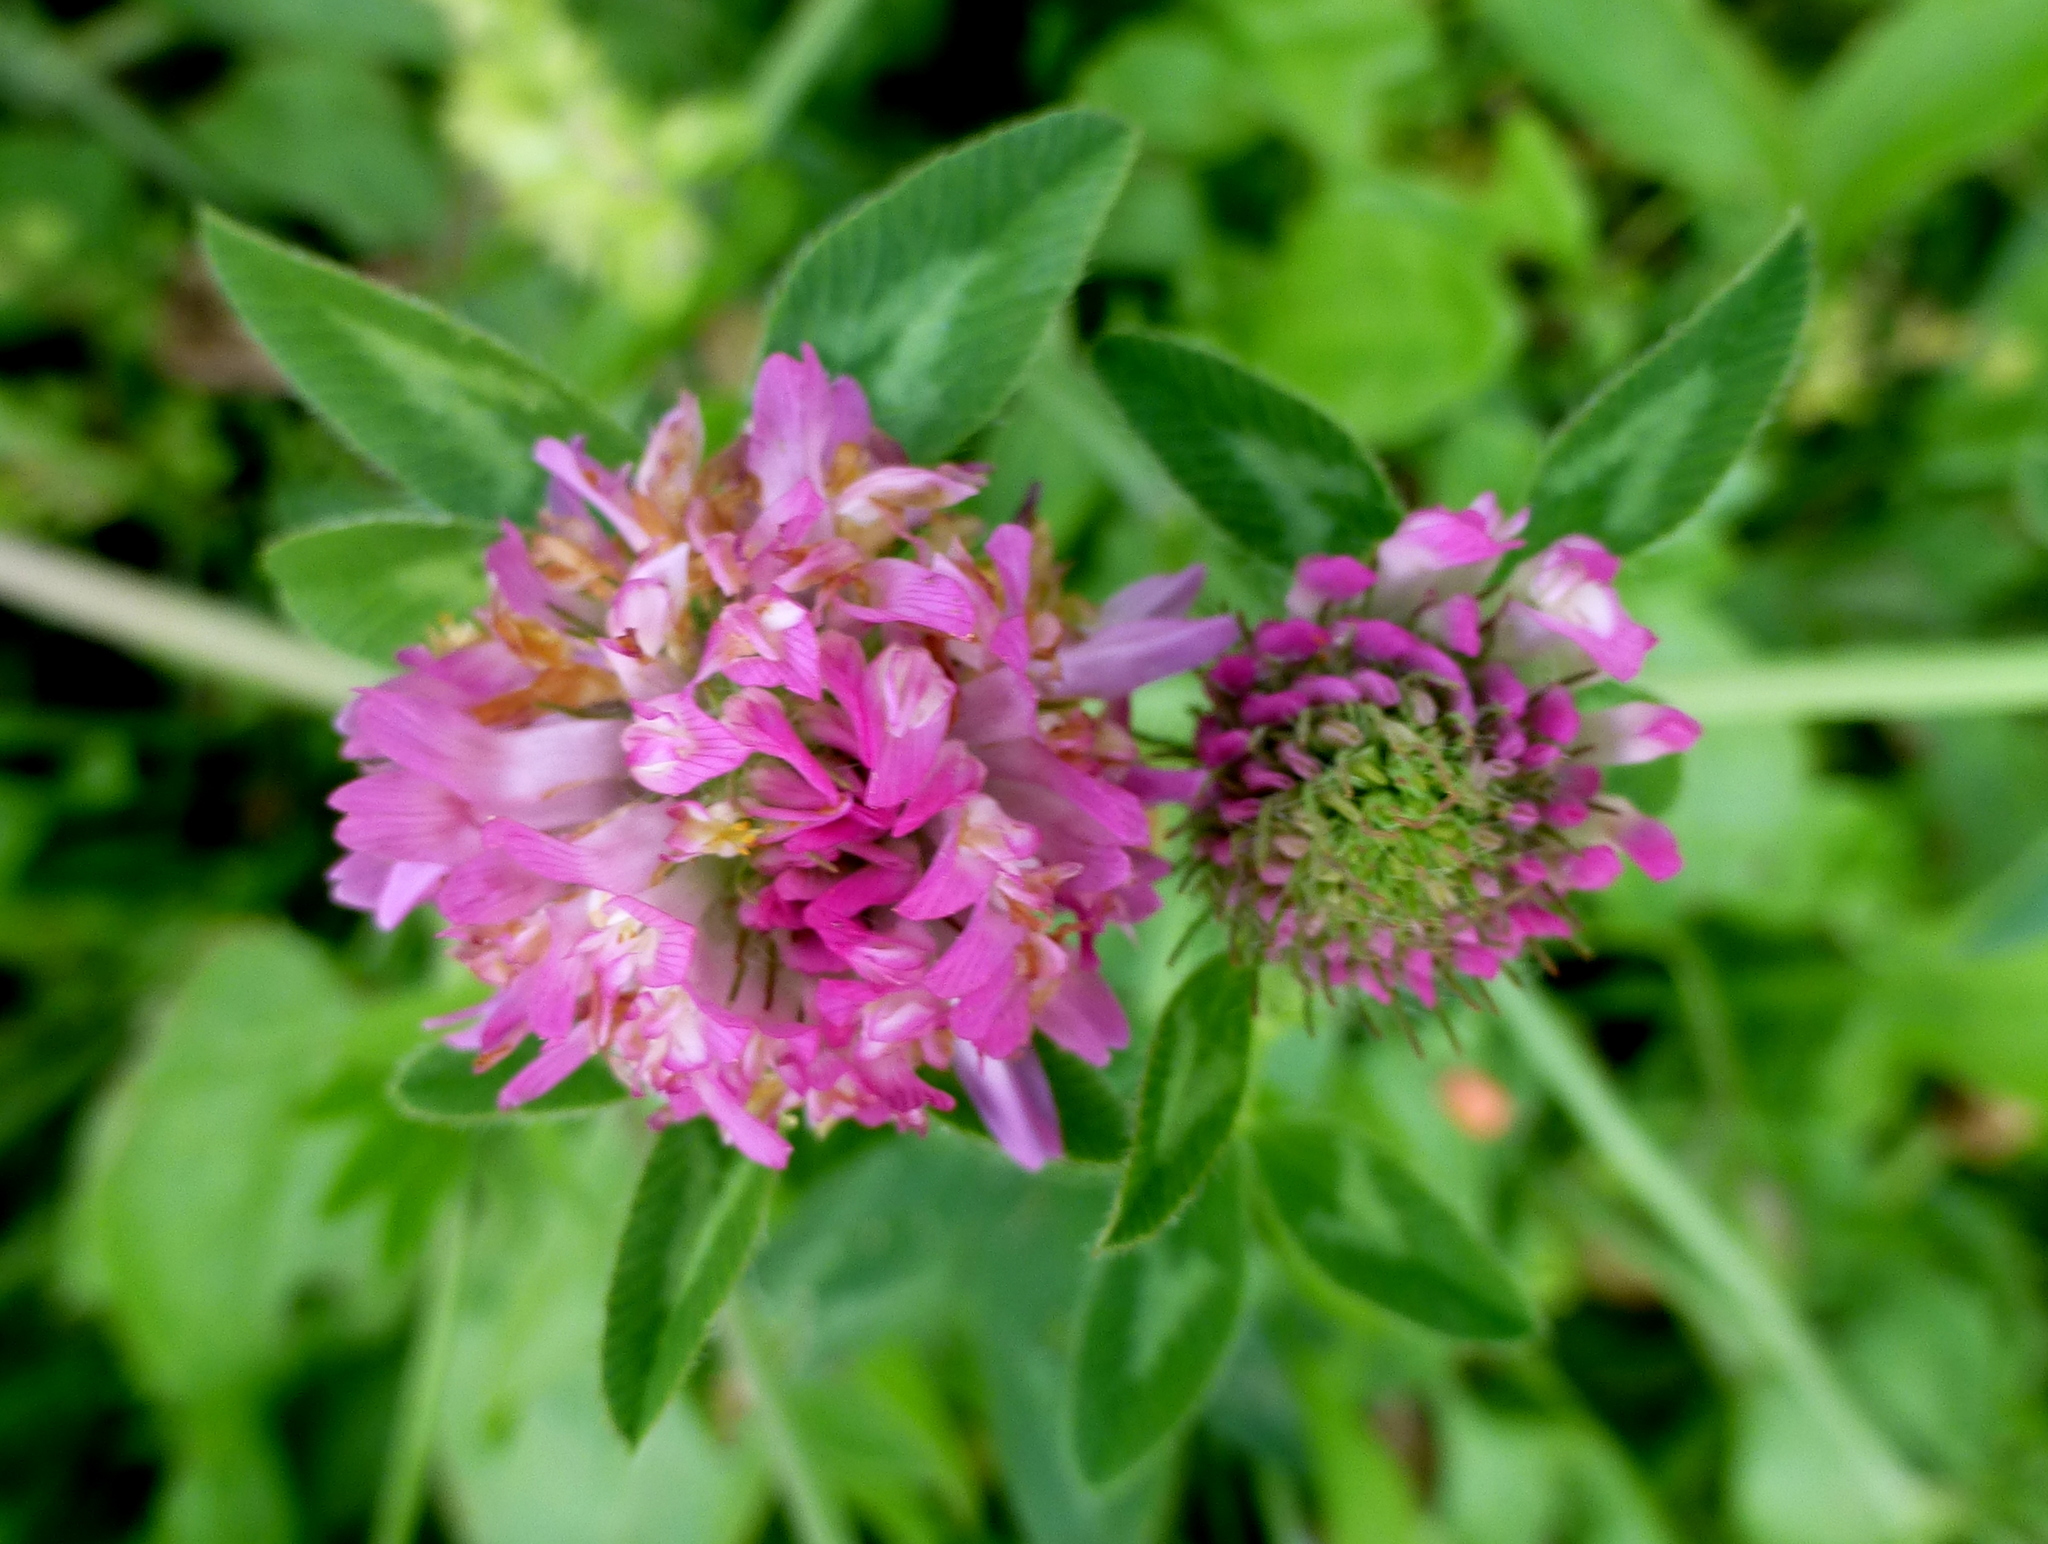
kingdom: Plantae
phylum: Tracheophyta
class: Magnoliopsida
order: Fabales
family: Fabaceae
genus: Trifolium
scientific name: Trifolium pratense
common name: Red clover
